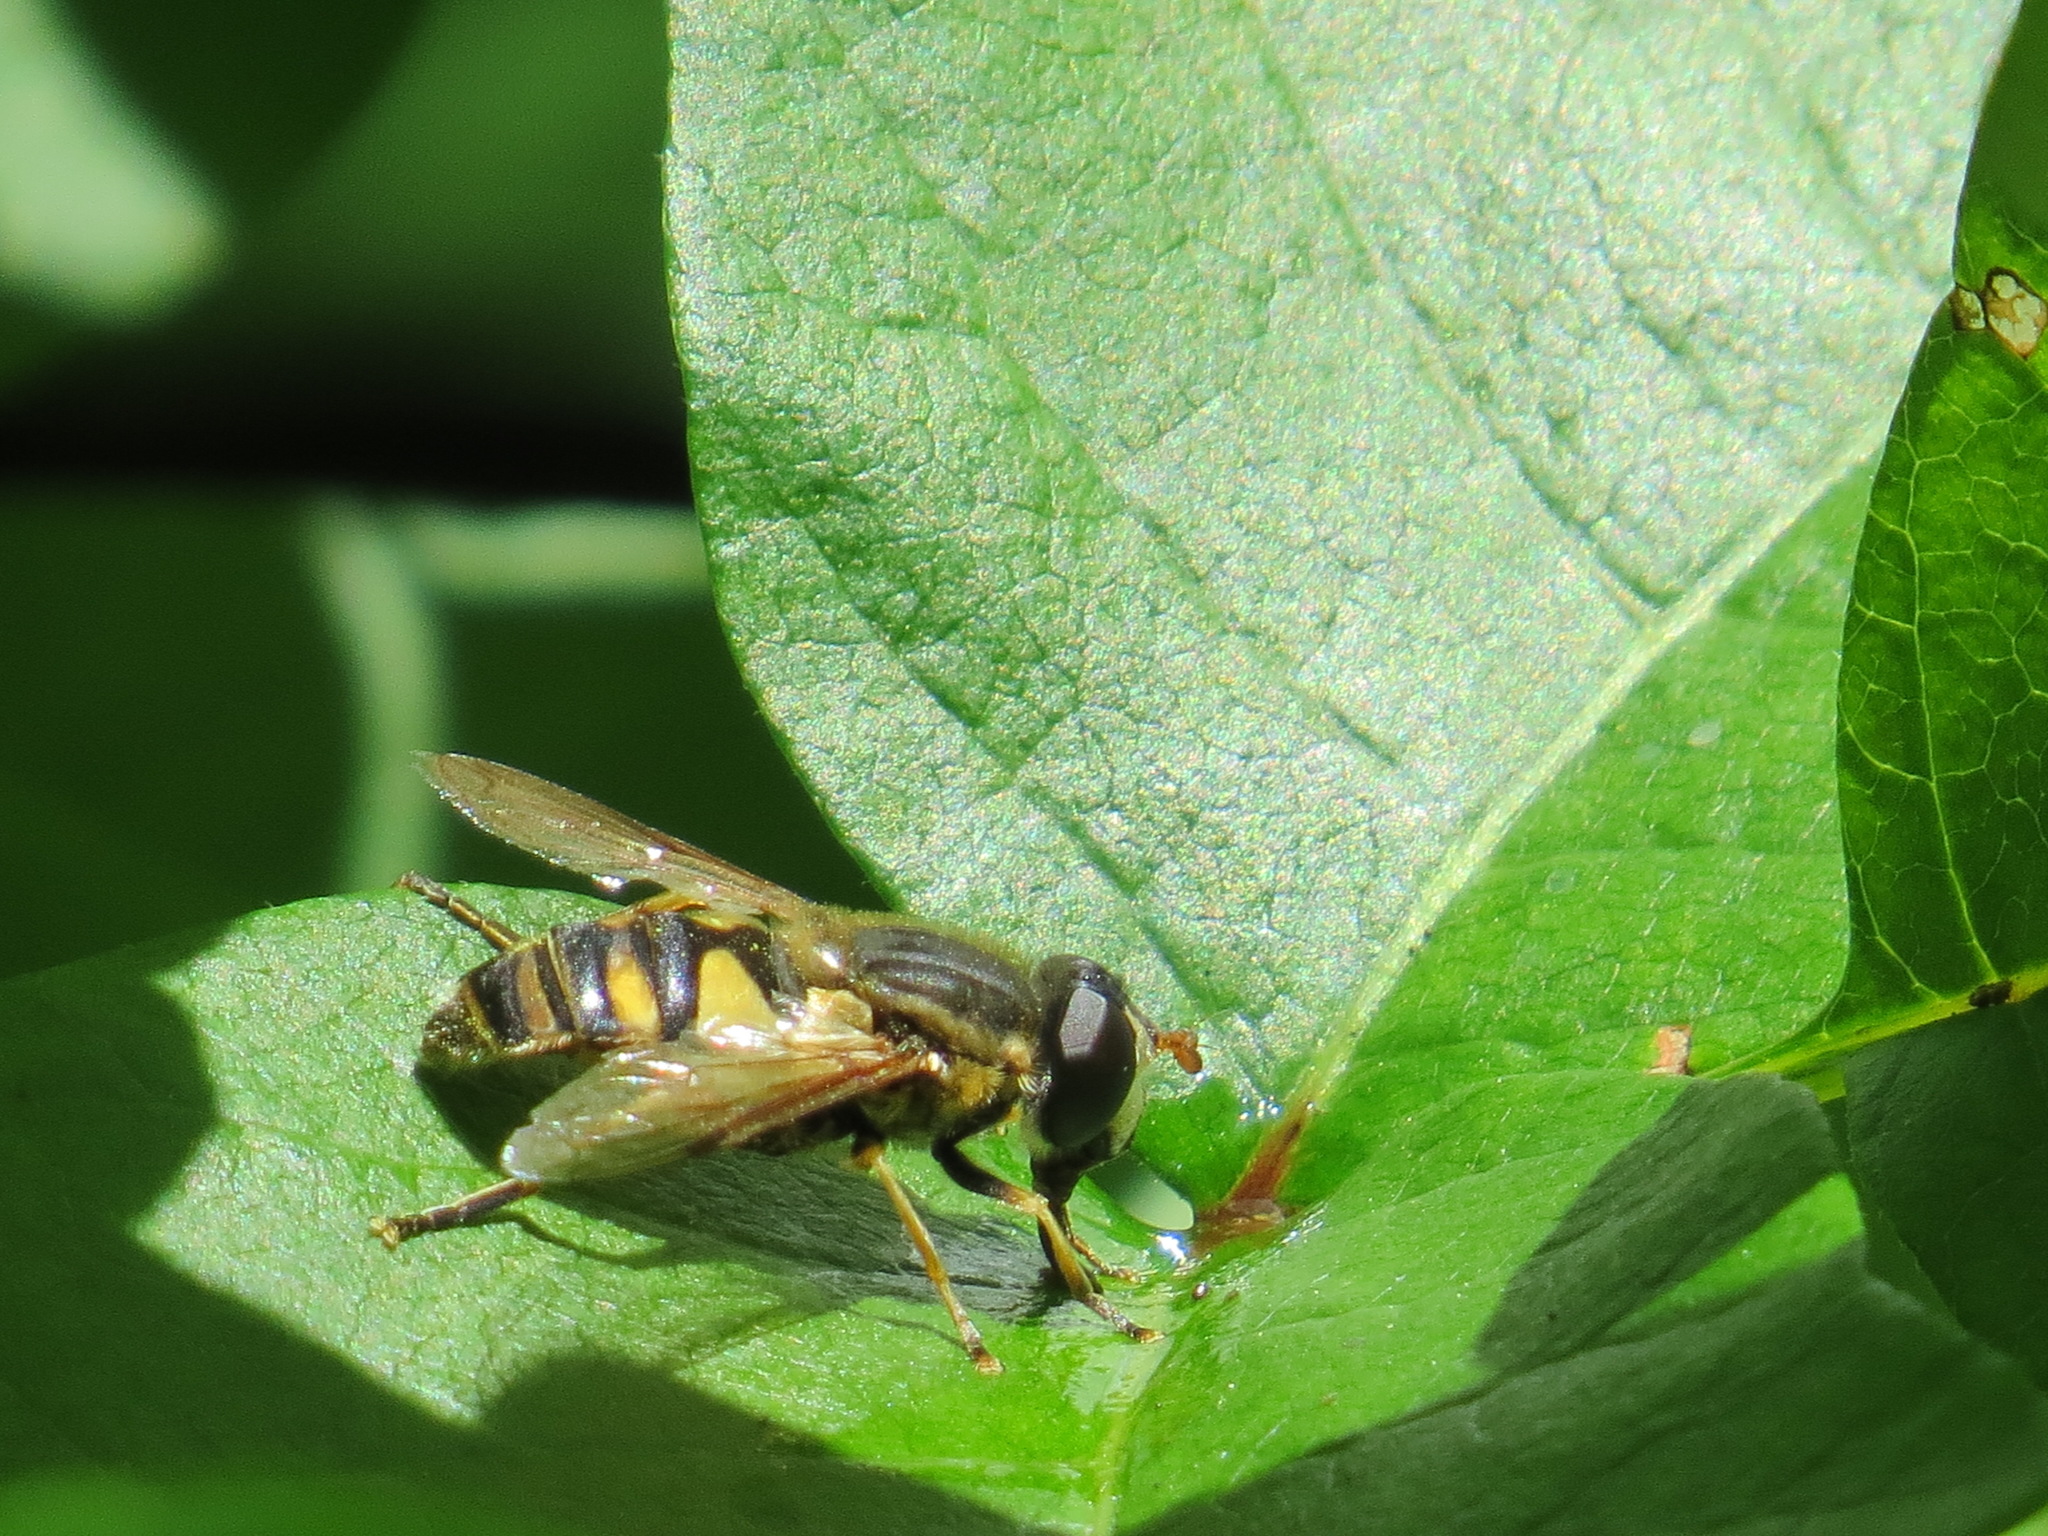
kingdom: Animalia
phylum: Arthropoda
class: Insecta
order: Diptera
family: Syrphidae
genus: Helophilus
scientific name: Helophilus fasciatus
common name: Narrow-headed marsh fly
